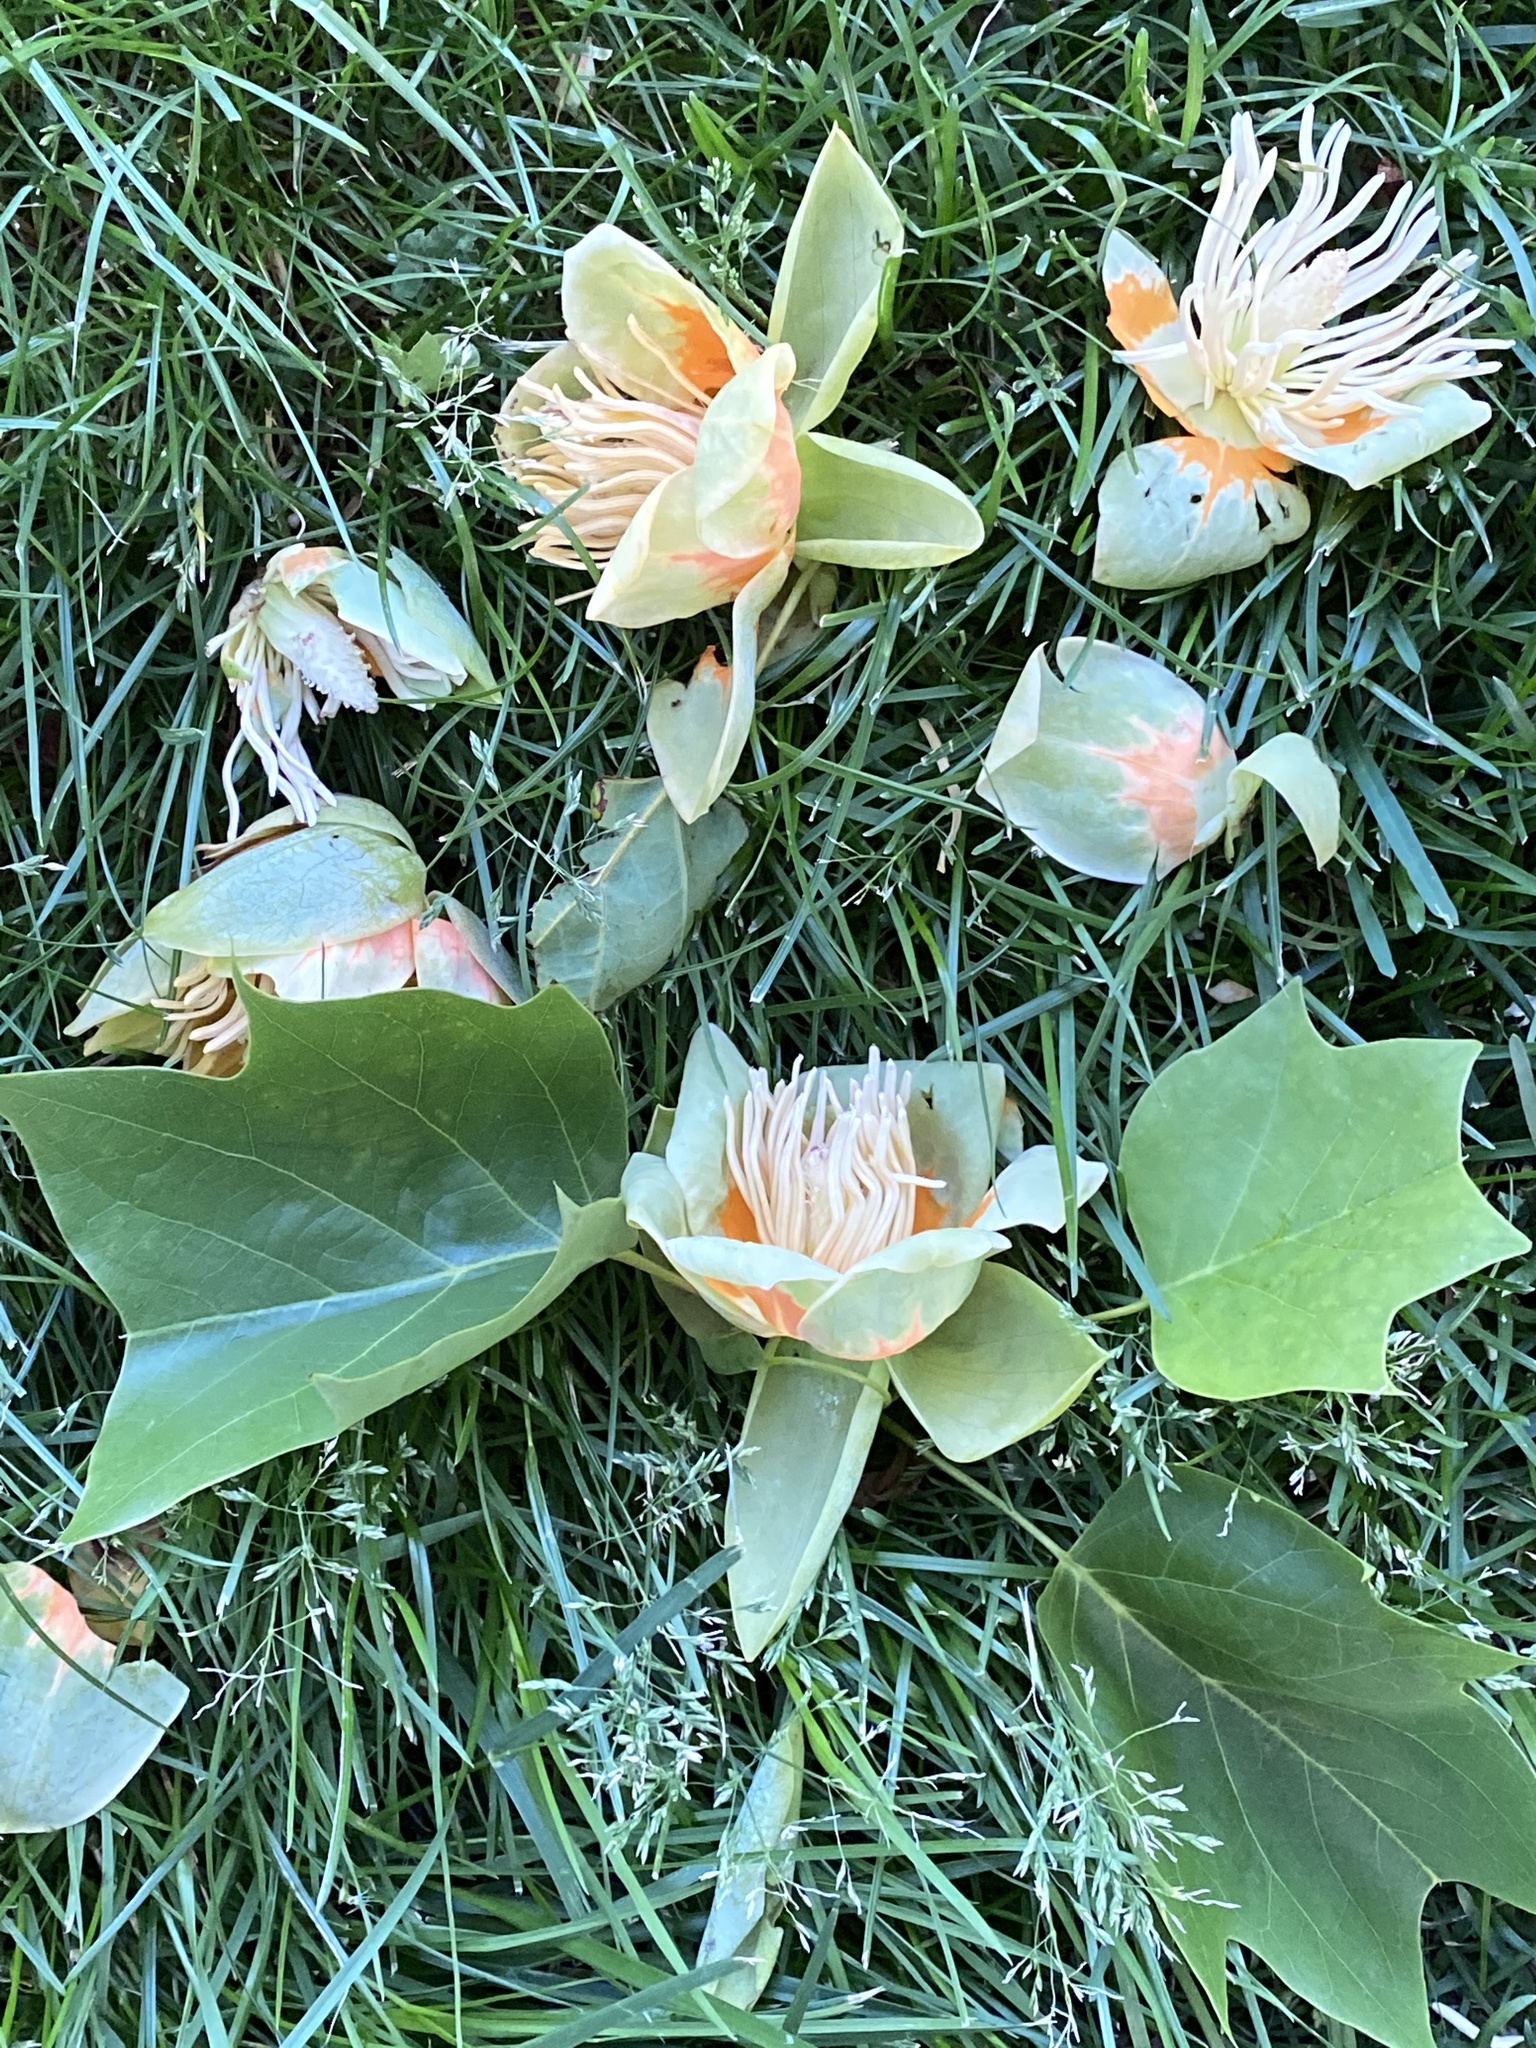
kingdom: Animalia
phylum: Chordata
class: Mammalia
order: Rodentia
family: Sciuridae
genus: Sciurus
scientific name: Sciurus carolinensis
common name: Eastern gray squirrel
